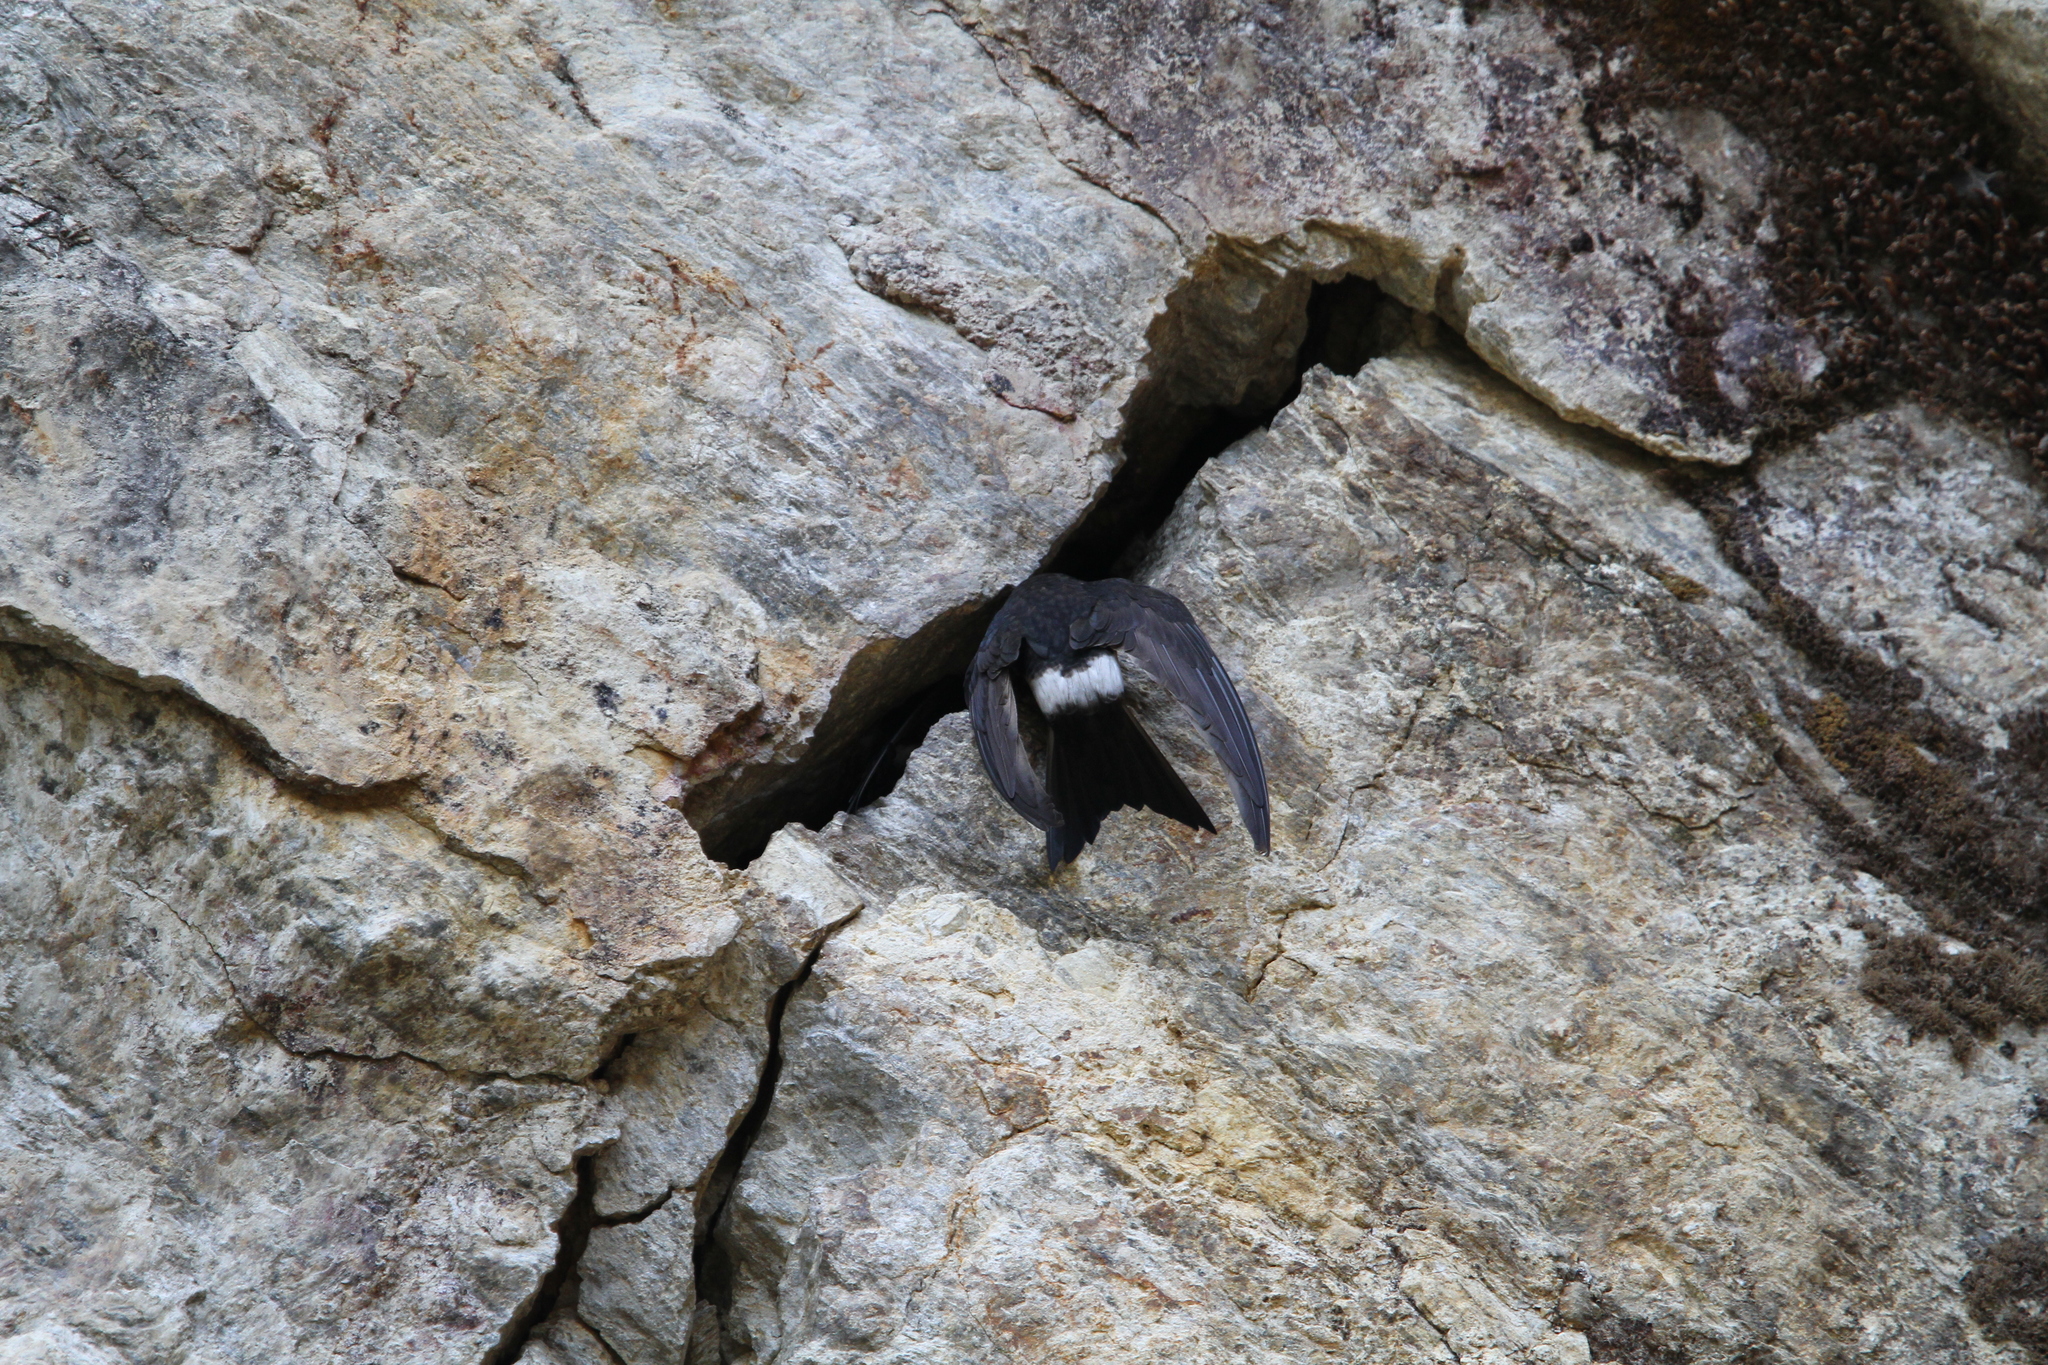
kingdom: Animalia
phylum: Chordata
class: Aves
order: Apodiformes
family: Apodidae
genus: Apus
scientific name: Apus leuconyx
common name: Blyth's swift
